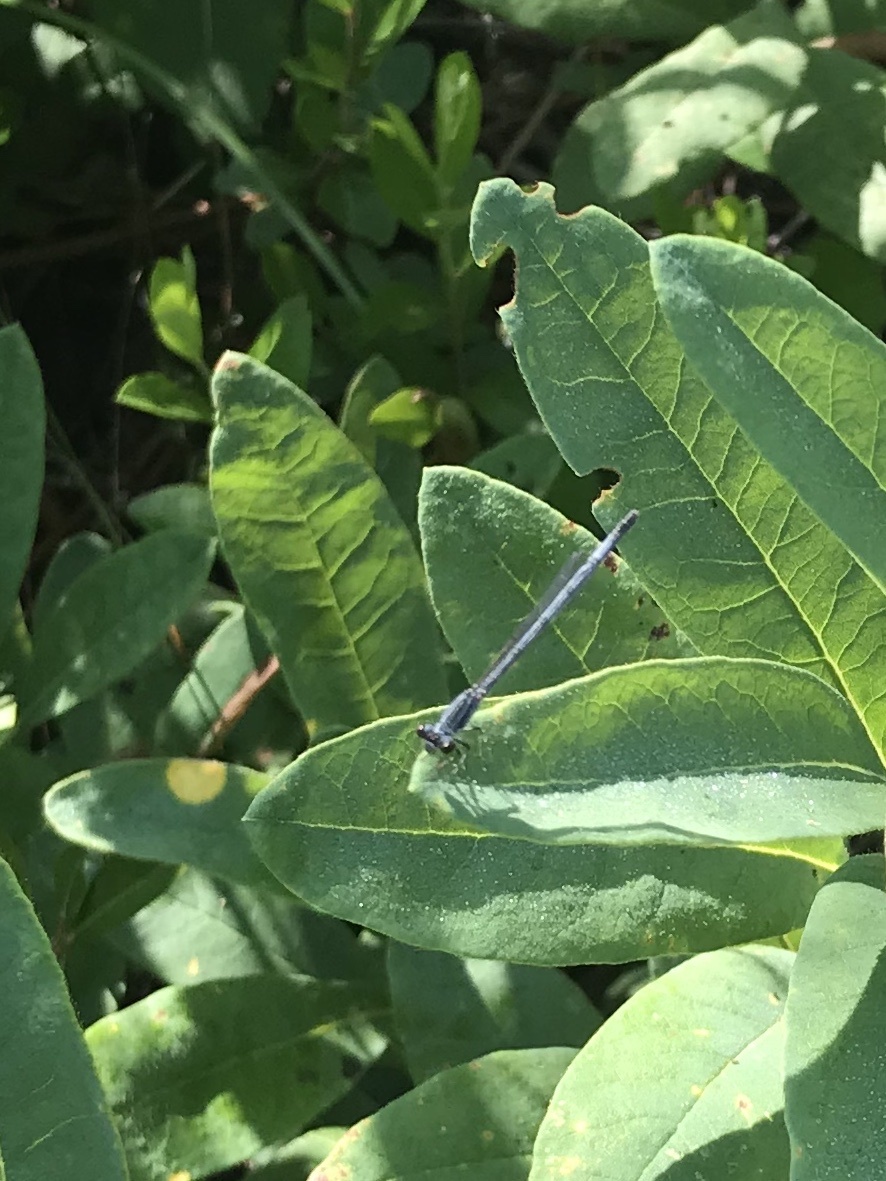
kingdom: Animalia
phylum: Arthropoda
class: Insecta
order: Odonata
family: Coenagrionidae
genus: Ischnura
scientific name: Ischnura verticalis
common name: Eastern forktail
